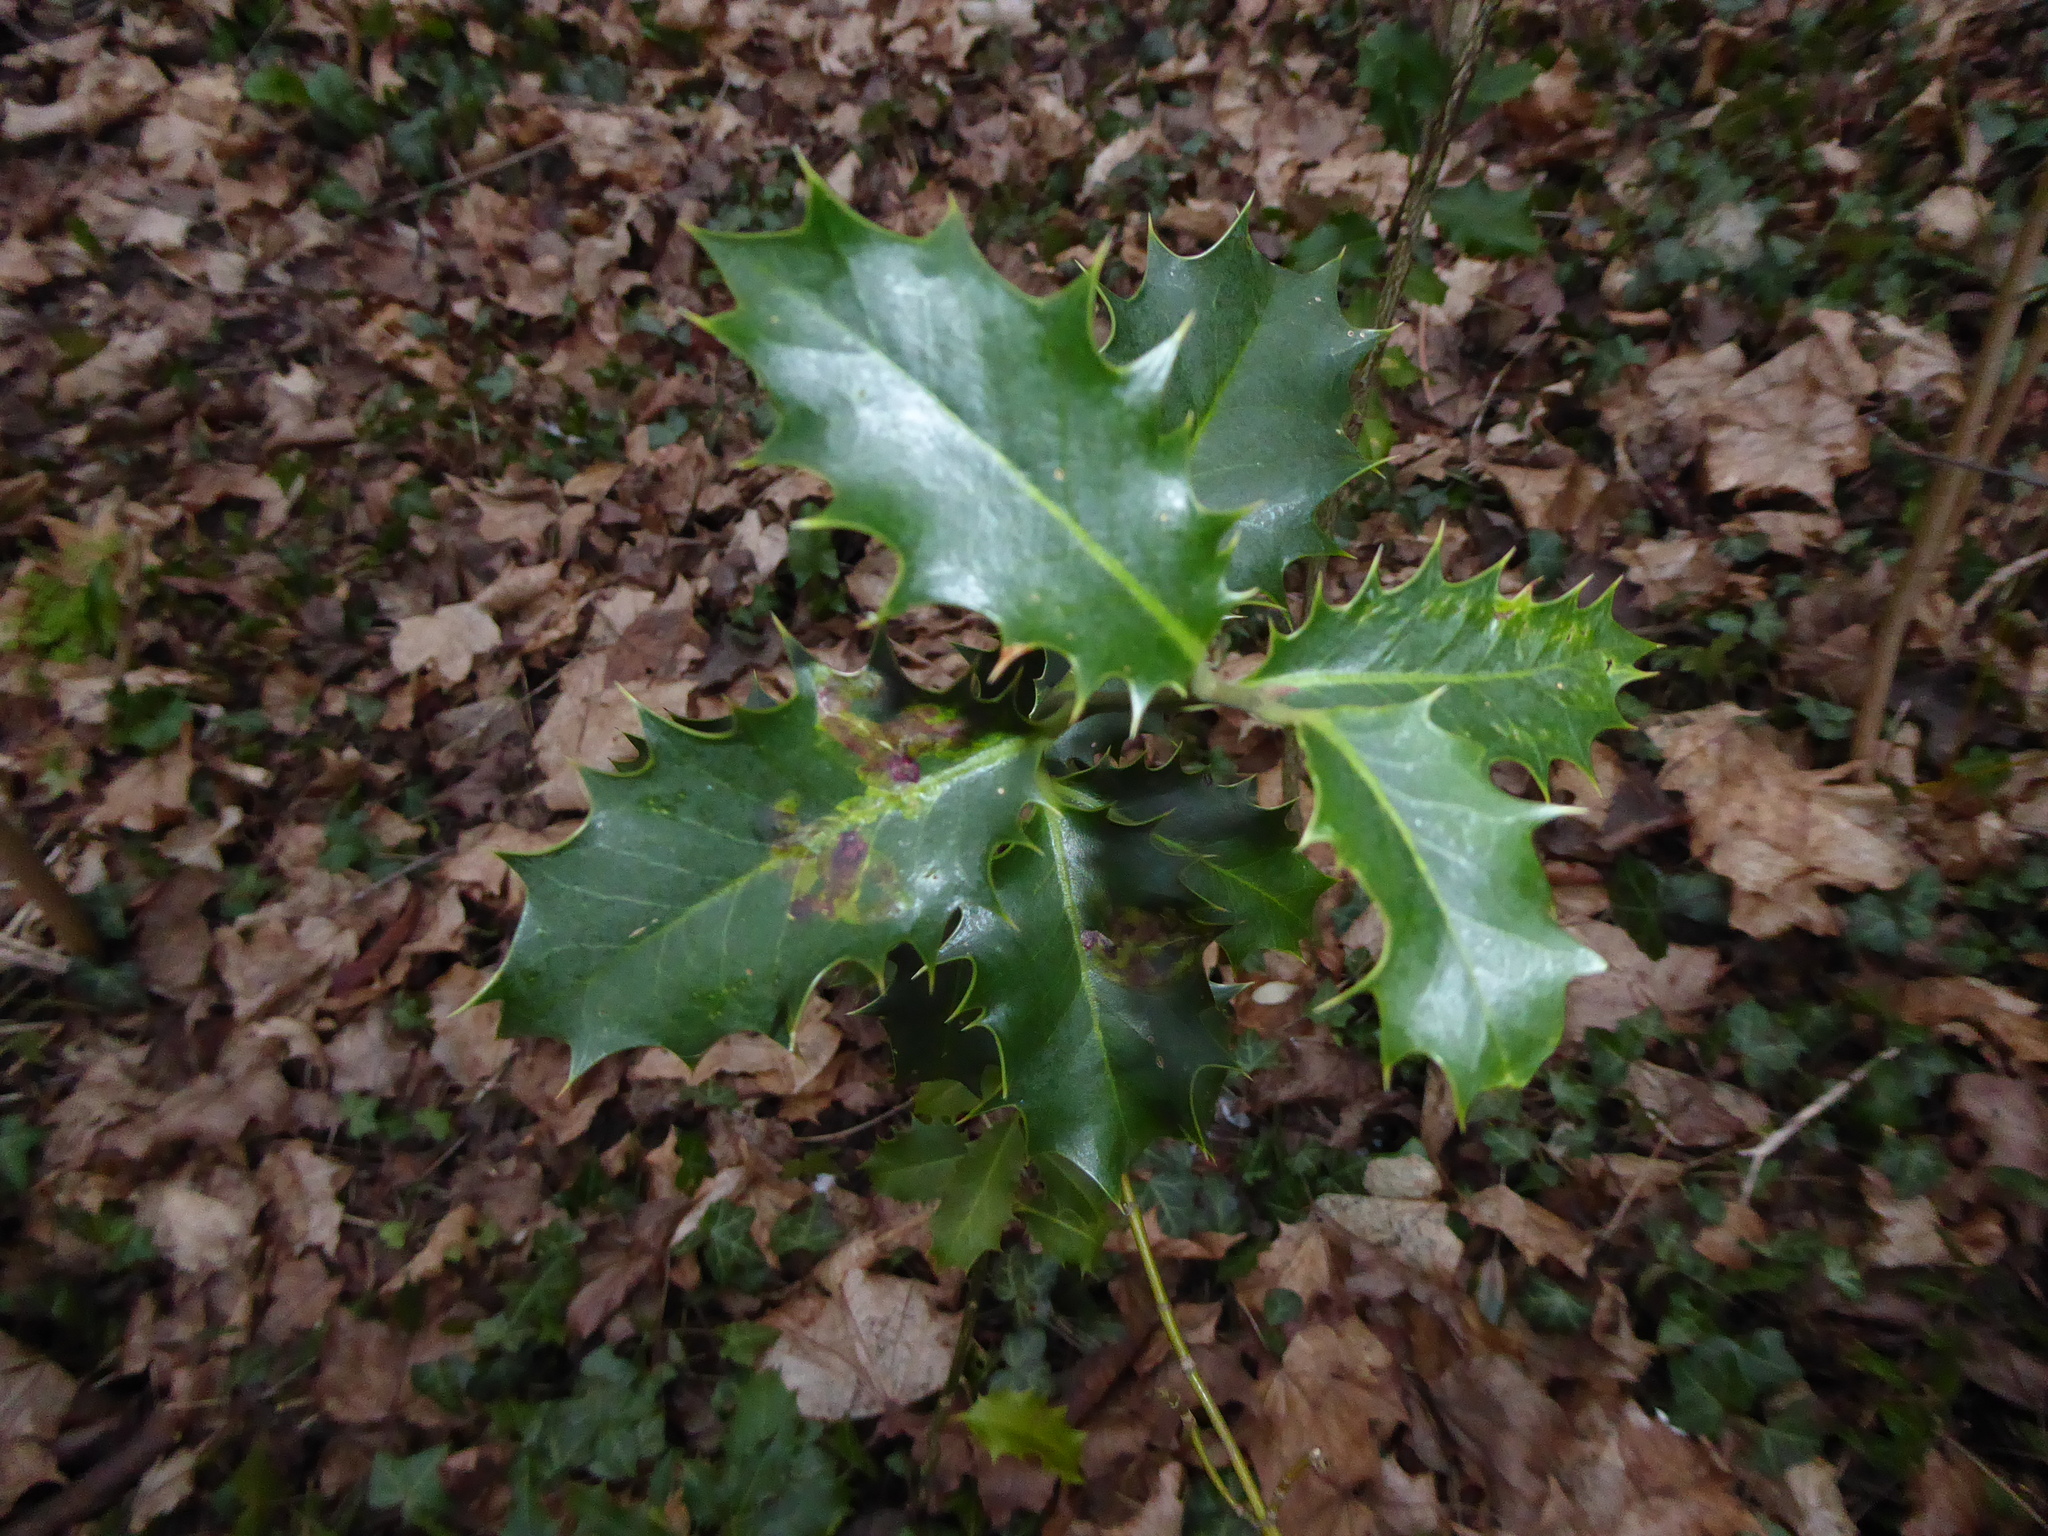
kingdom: Plantae
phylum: Tracheophyta
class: Magnoliopsida
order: Aquifoliales
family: Aquifoliaceae
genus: Ilex
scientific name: Ilex aquifolium
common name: English holly
